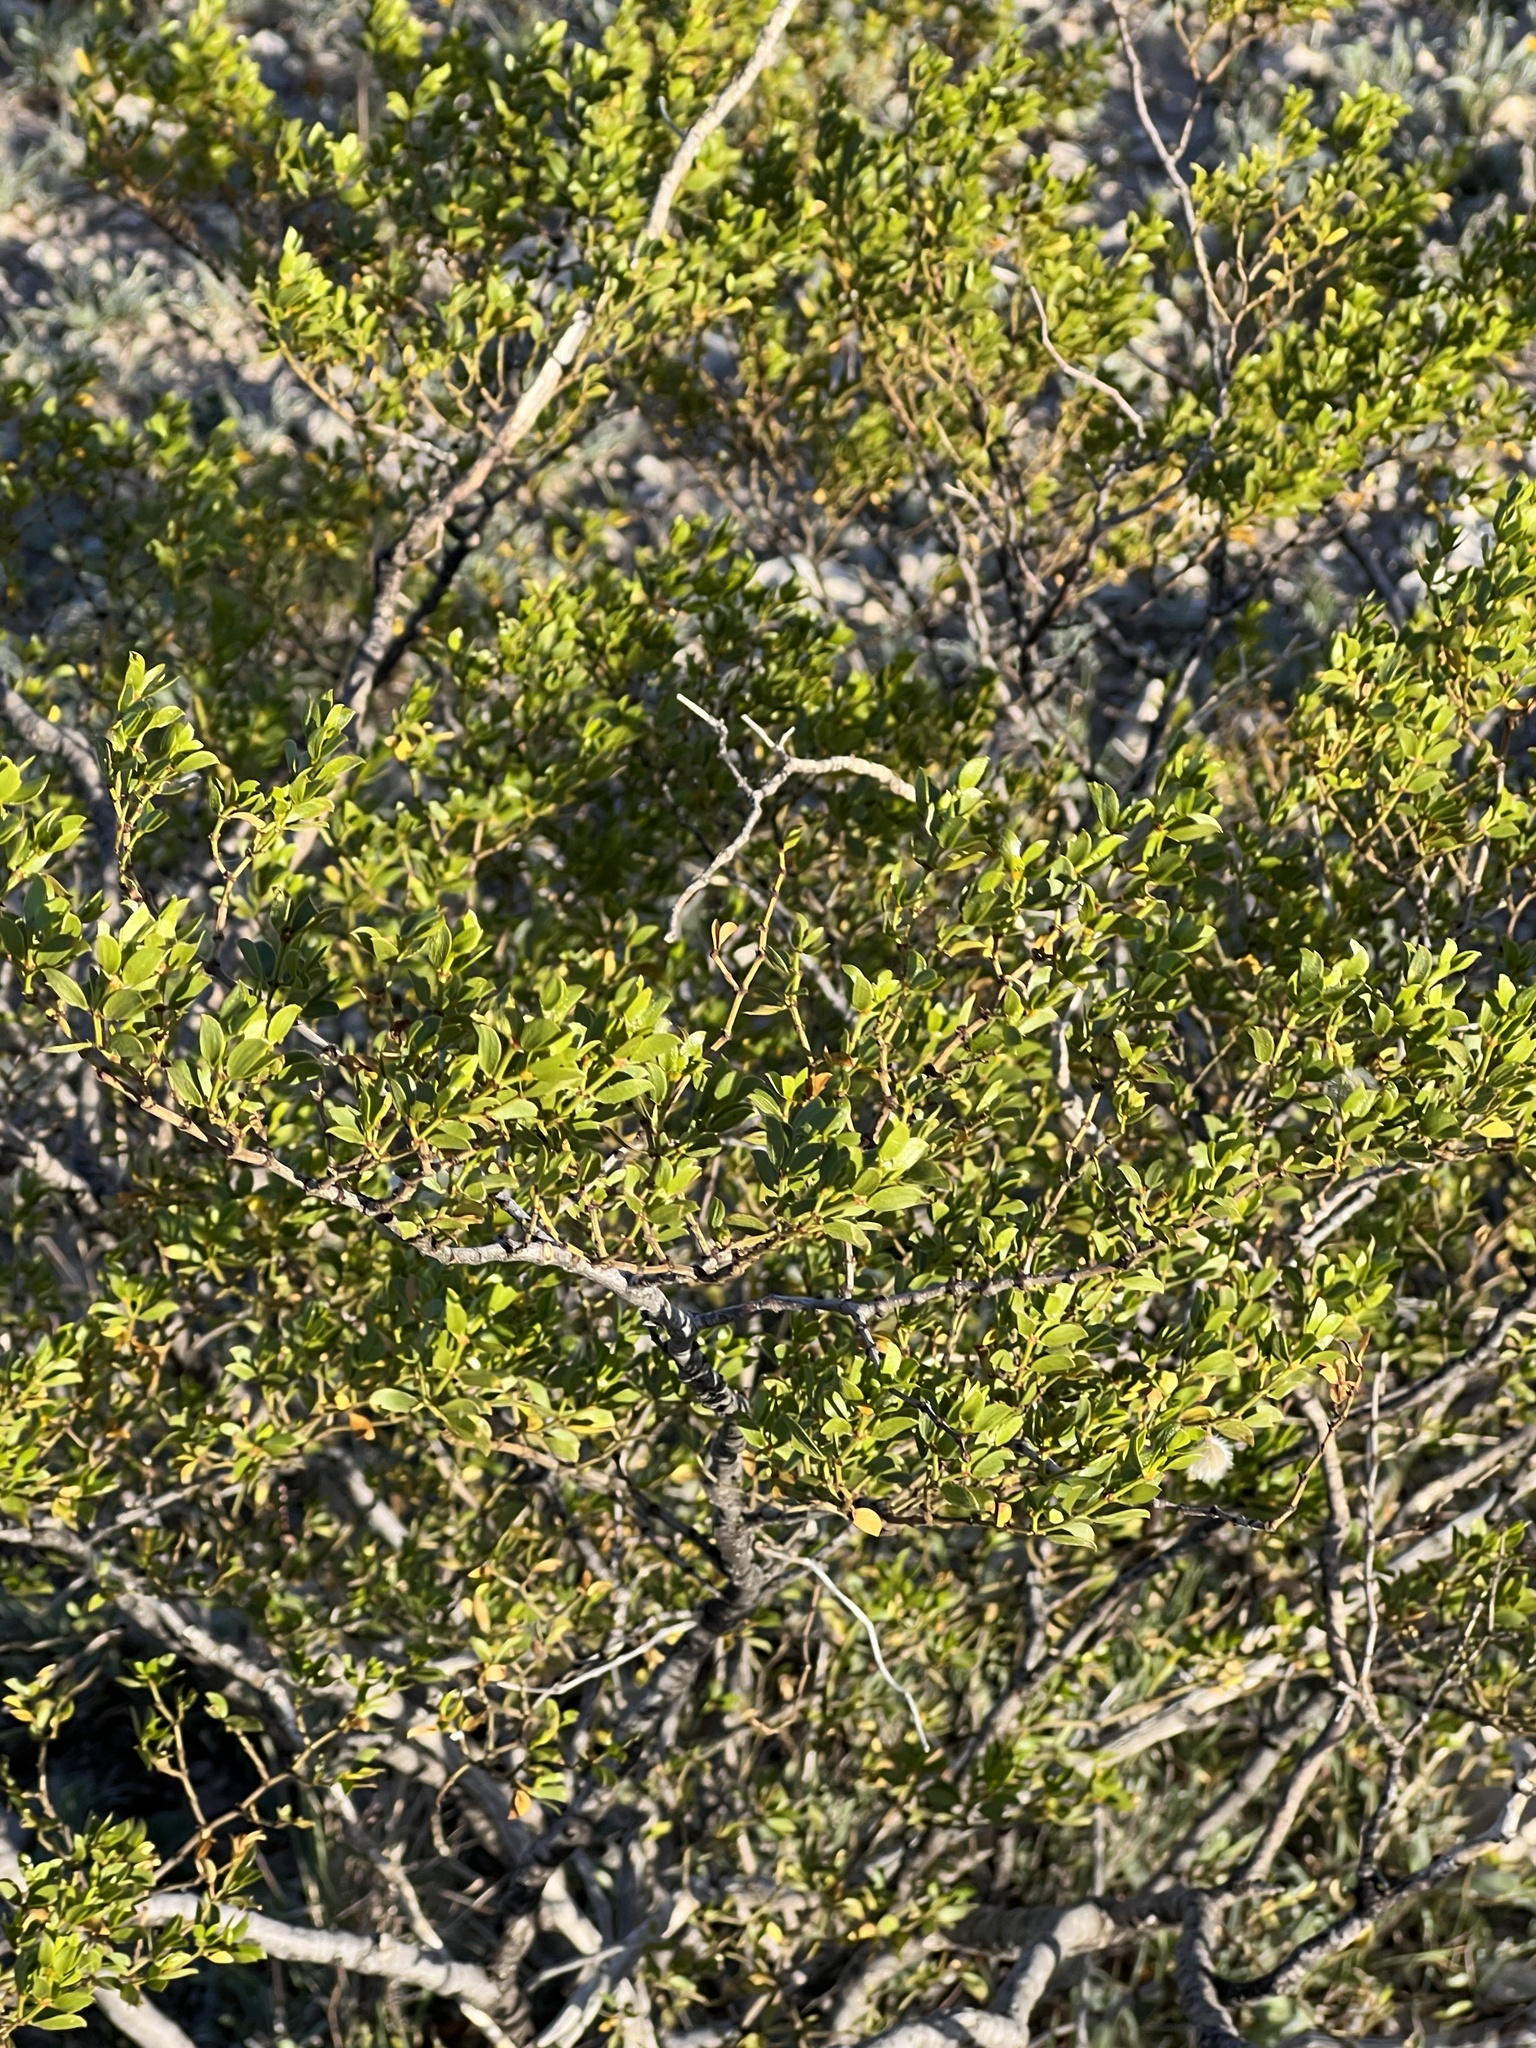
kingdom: Plantae
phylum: Tracheophyta
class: Magnoliopsida
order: Zygophyllales
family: Zygophyllaceae
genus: Larrea
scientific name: Larrea tridentata
